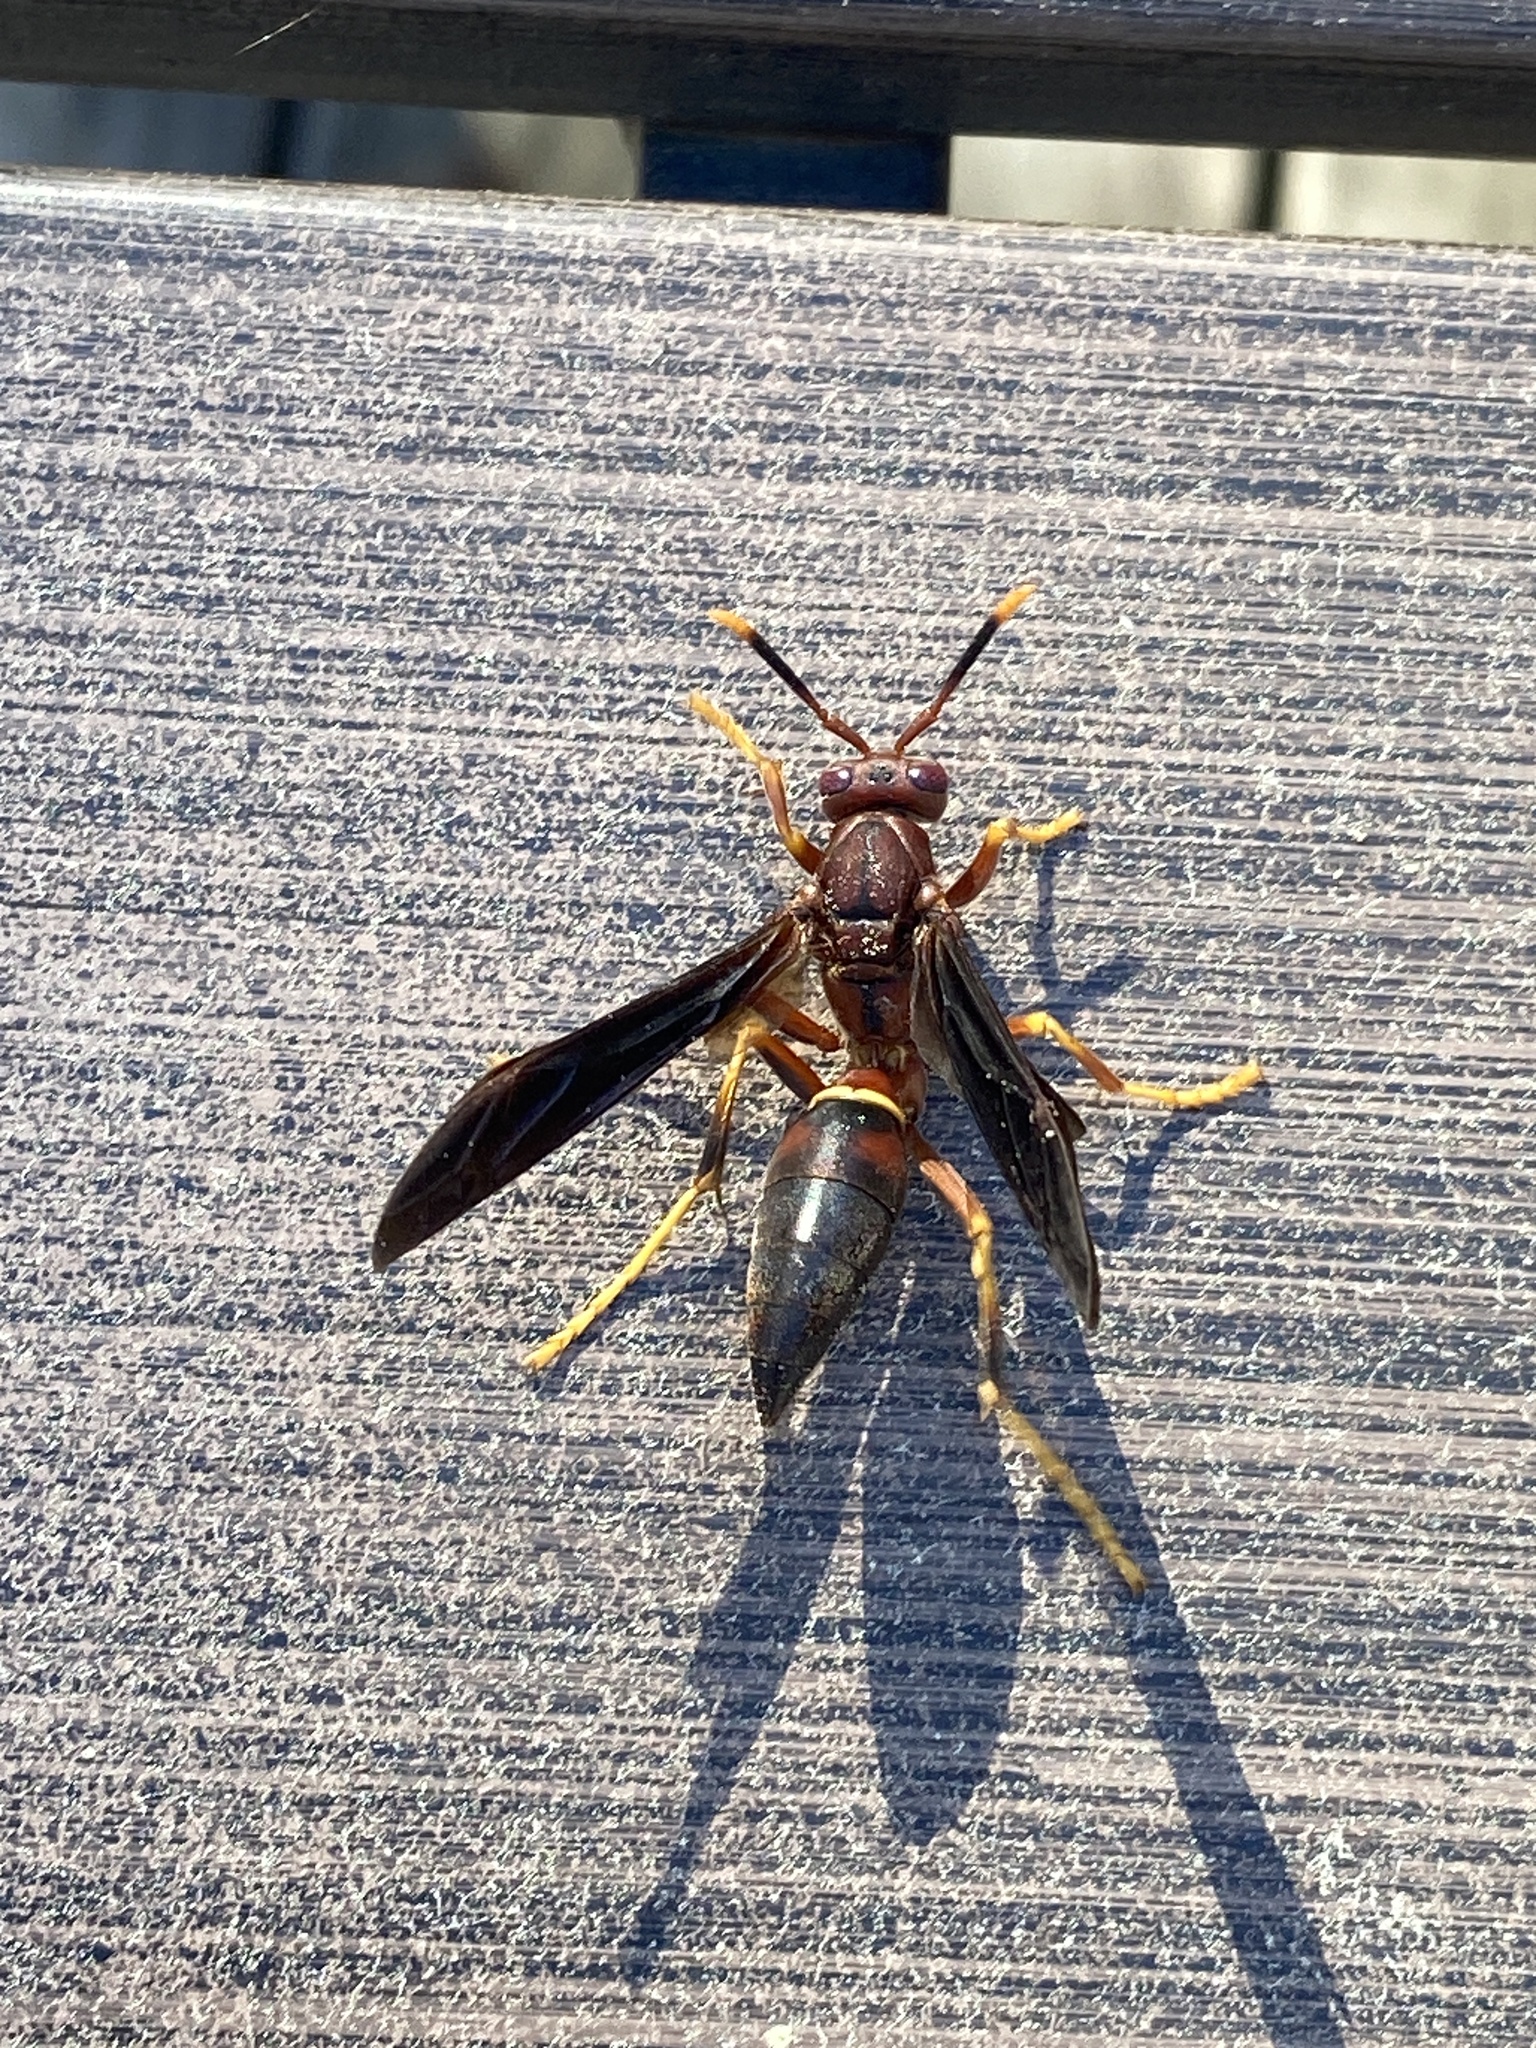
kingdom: Animalia
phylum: Arthropoda
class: Insecta
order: Hymenoptera
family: Eumenidae
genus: Polistes
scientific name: Polistes annularis
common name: Ringed paper wasp
